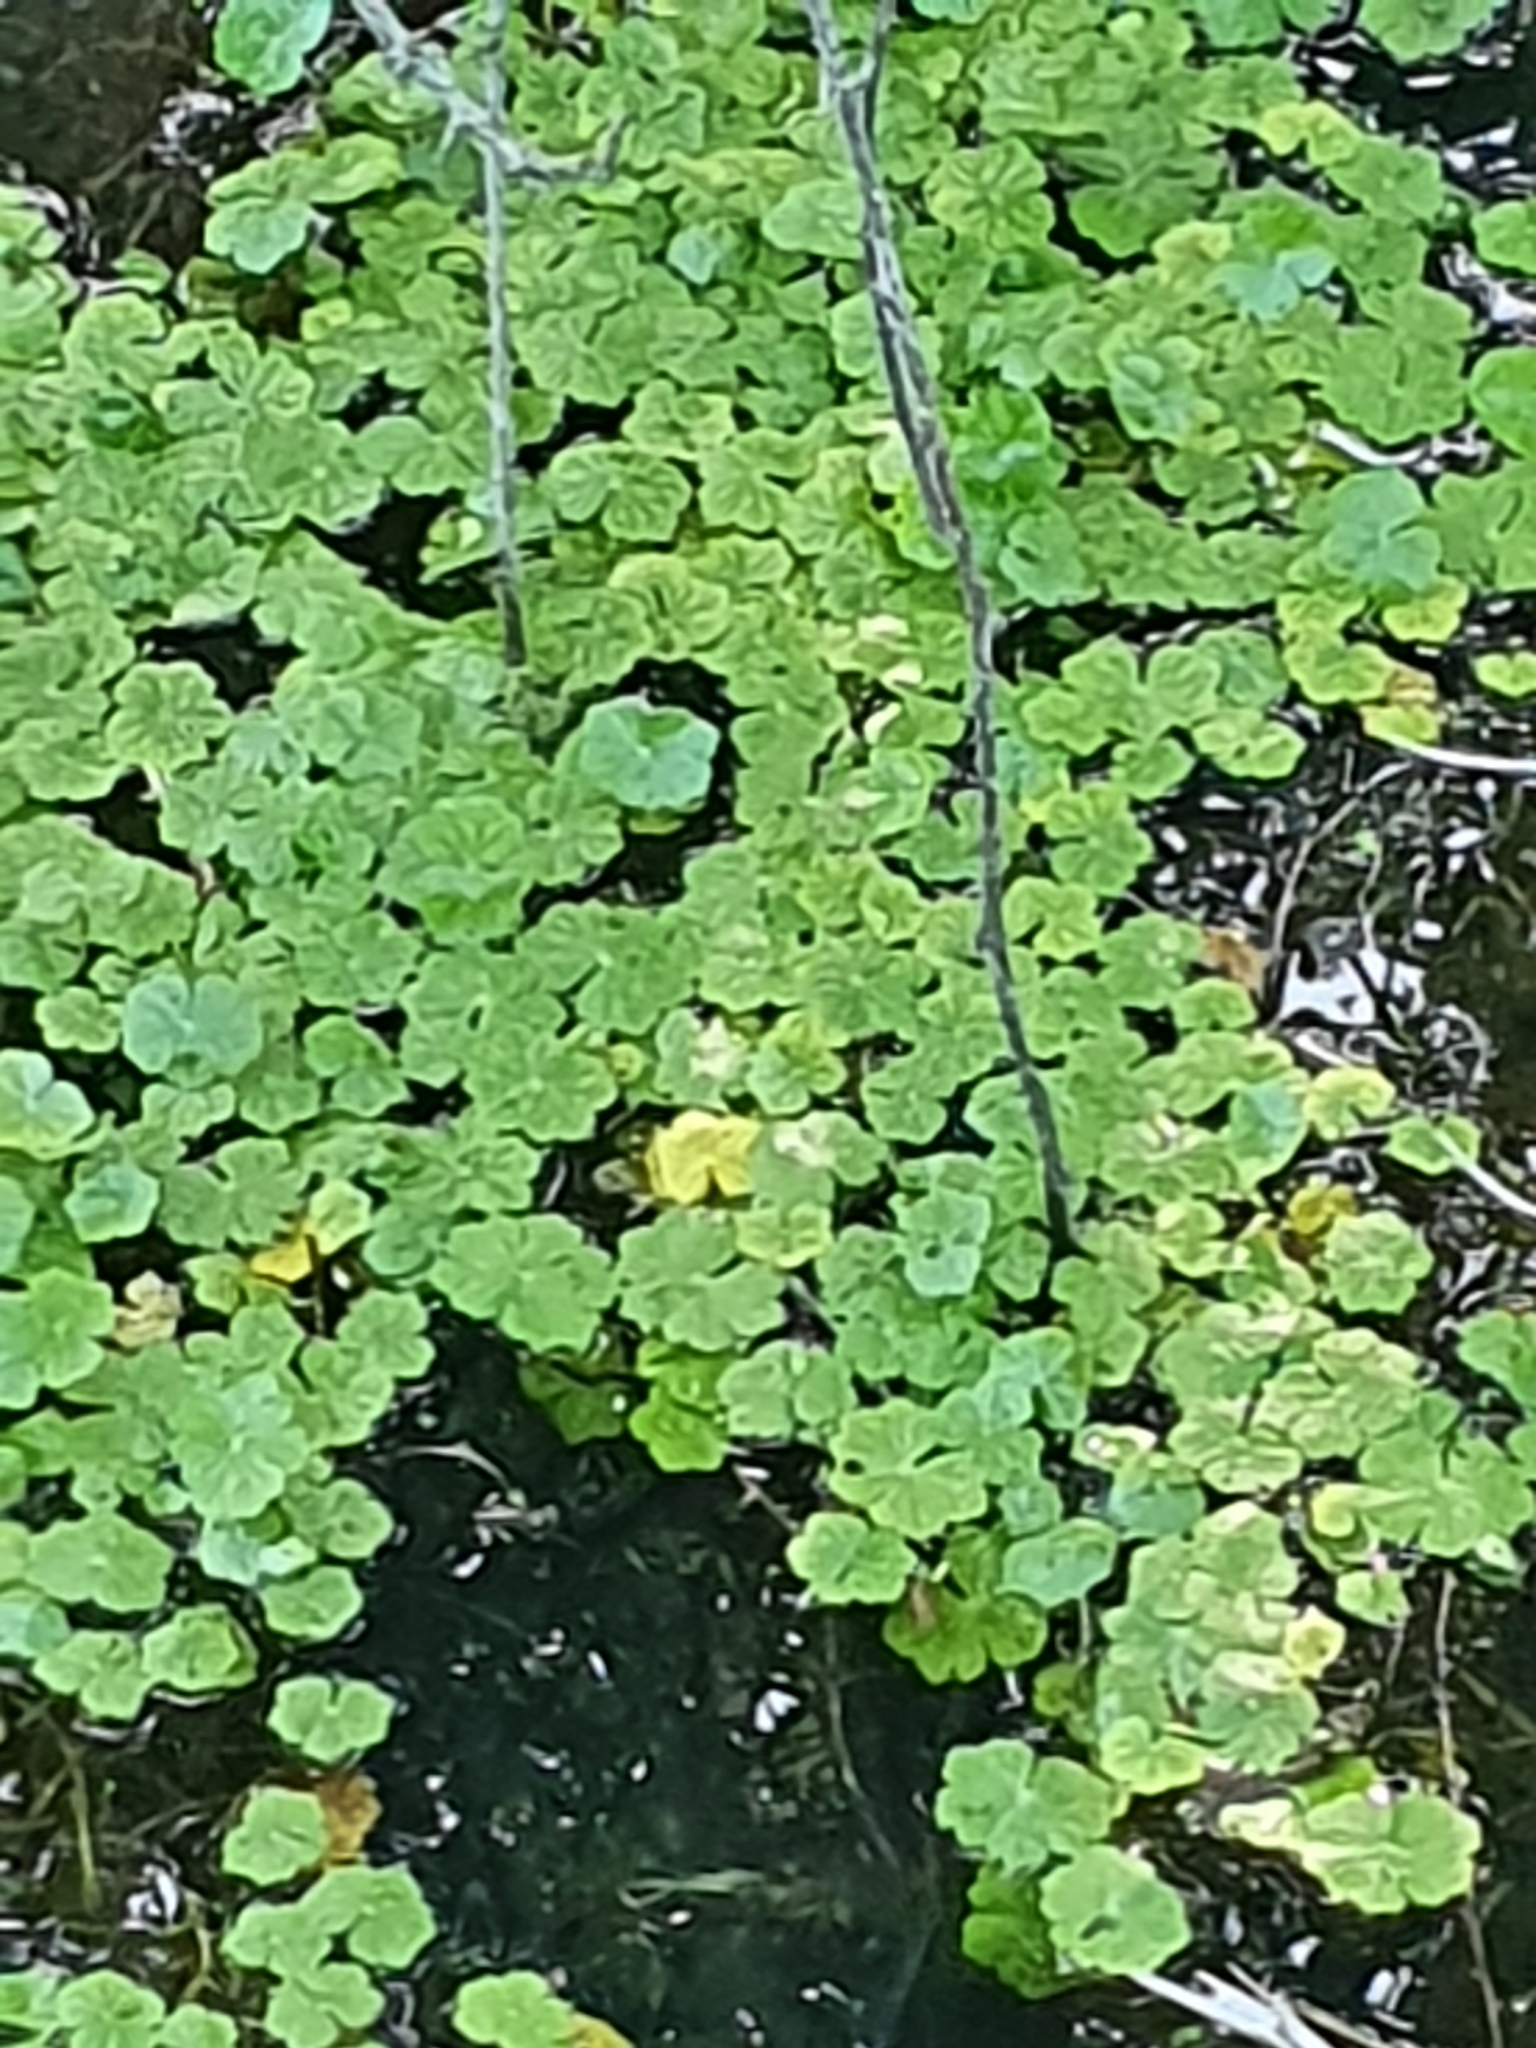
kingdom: Plantae
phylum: Tracheophyta
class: Magnoliopsida
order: Apiales
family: Araliaceae
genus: Hydrocotyle
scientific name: Hydrocotyle ranunculoides
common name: Floating pennywort
